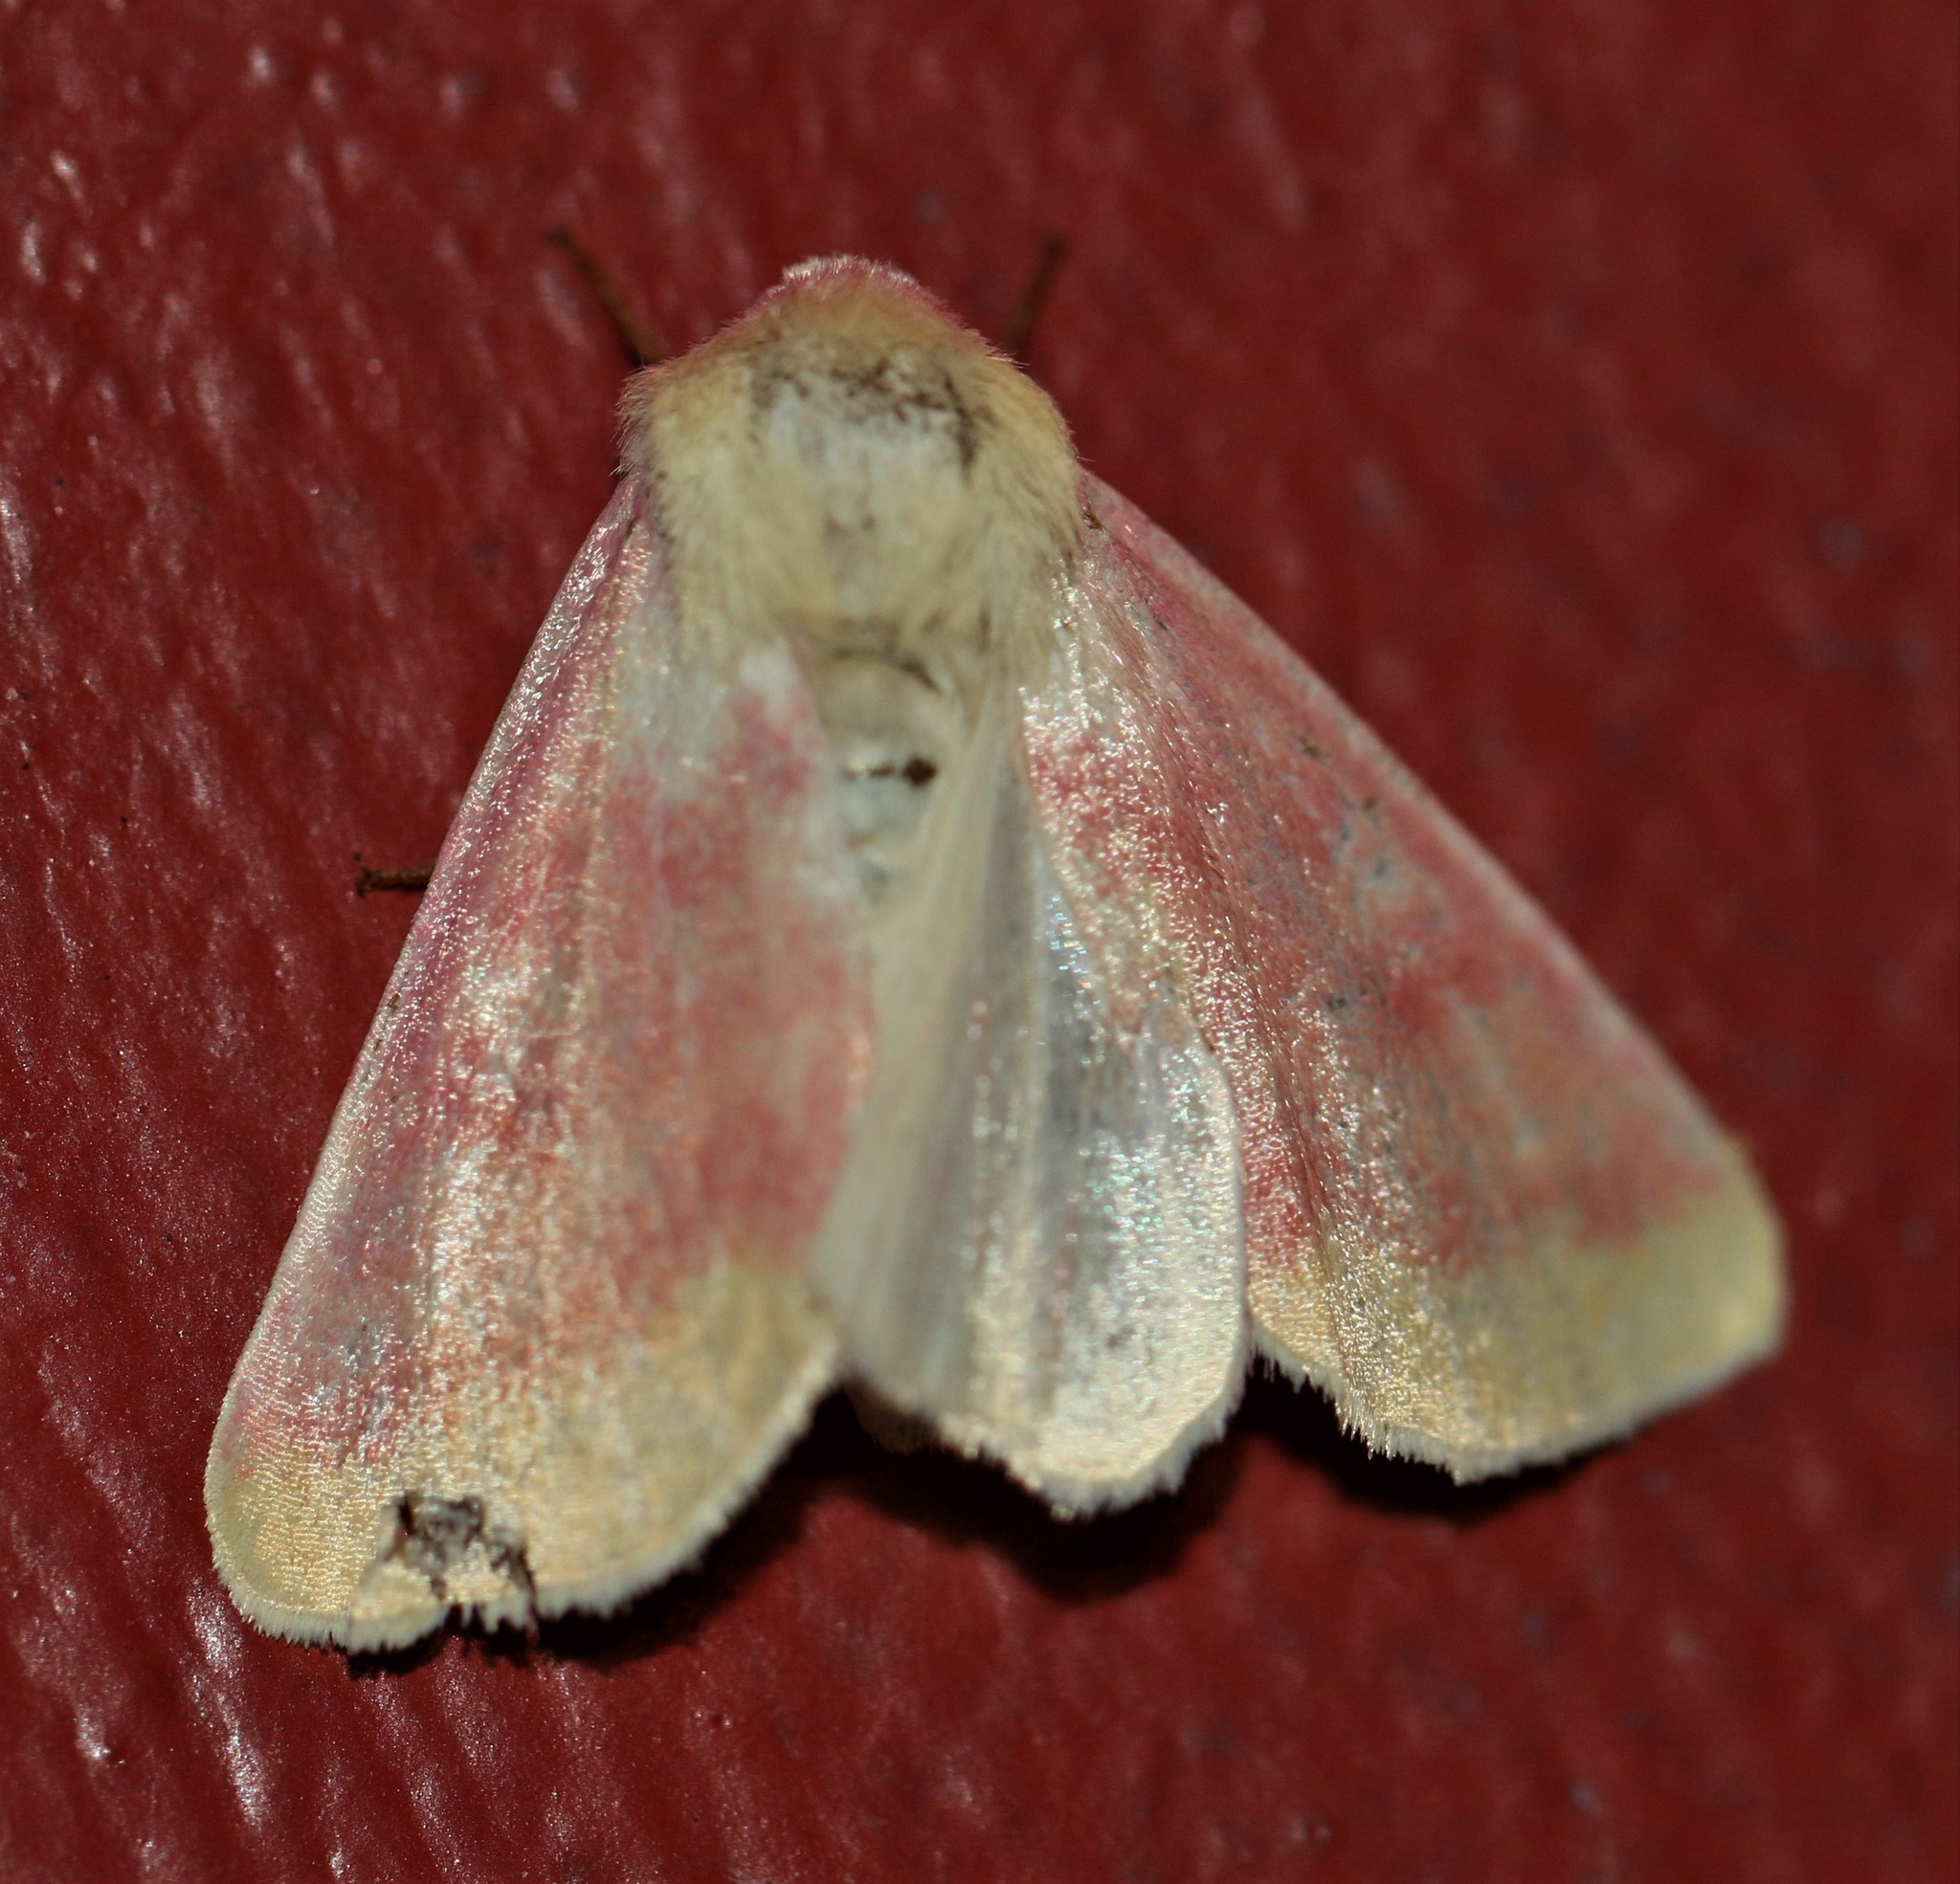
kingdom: Animalia
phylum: Arthropoda
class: Insecta
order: Lepidoptera
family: Noctuidae
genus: Schinia
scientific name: Schinia florida
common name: Primrose moth
